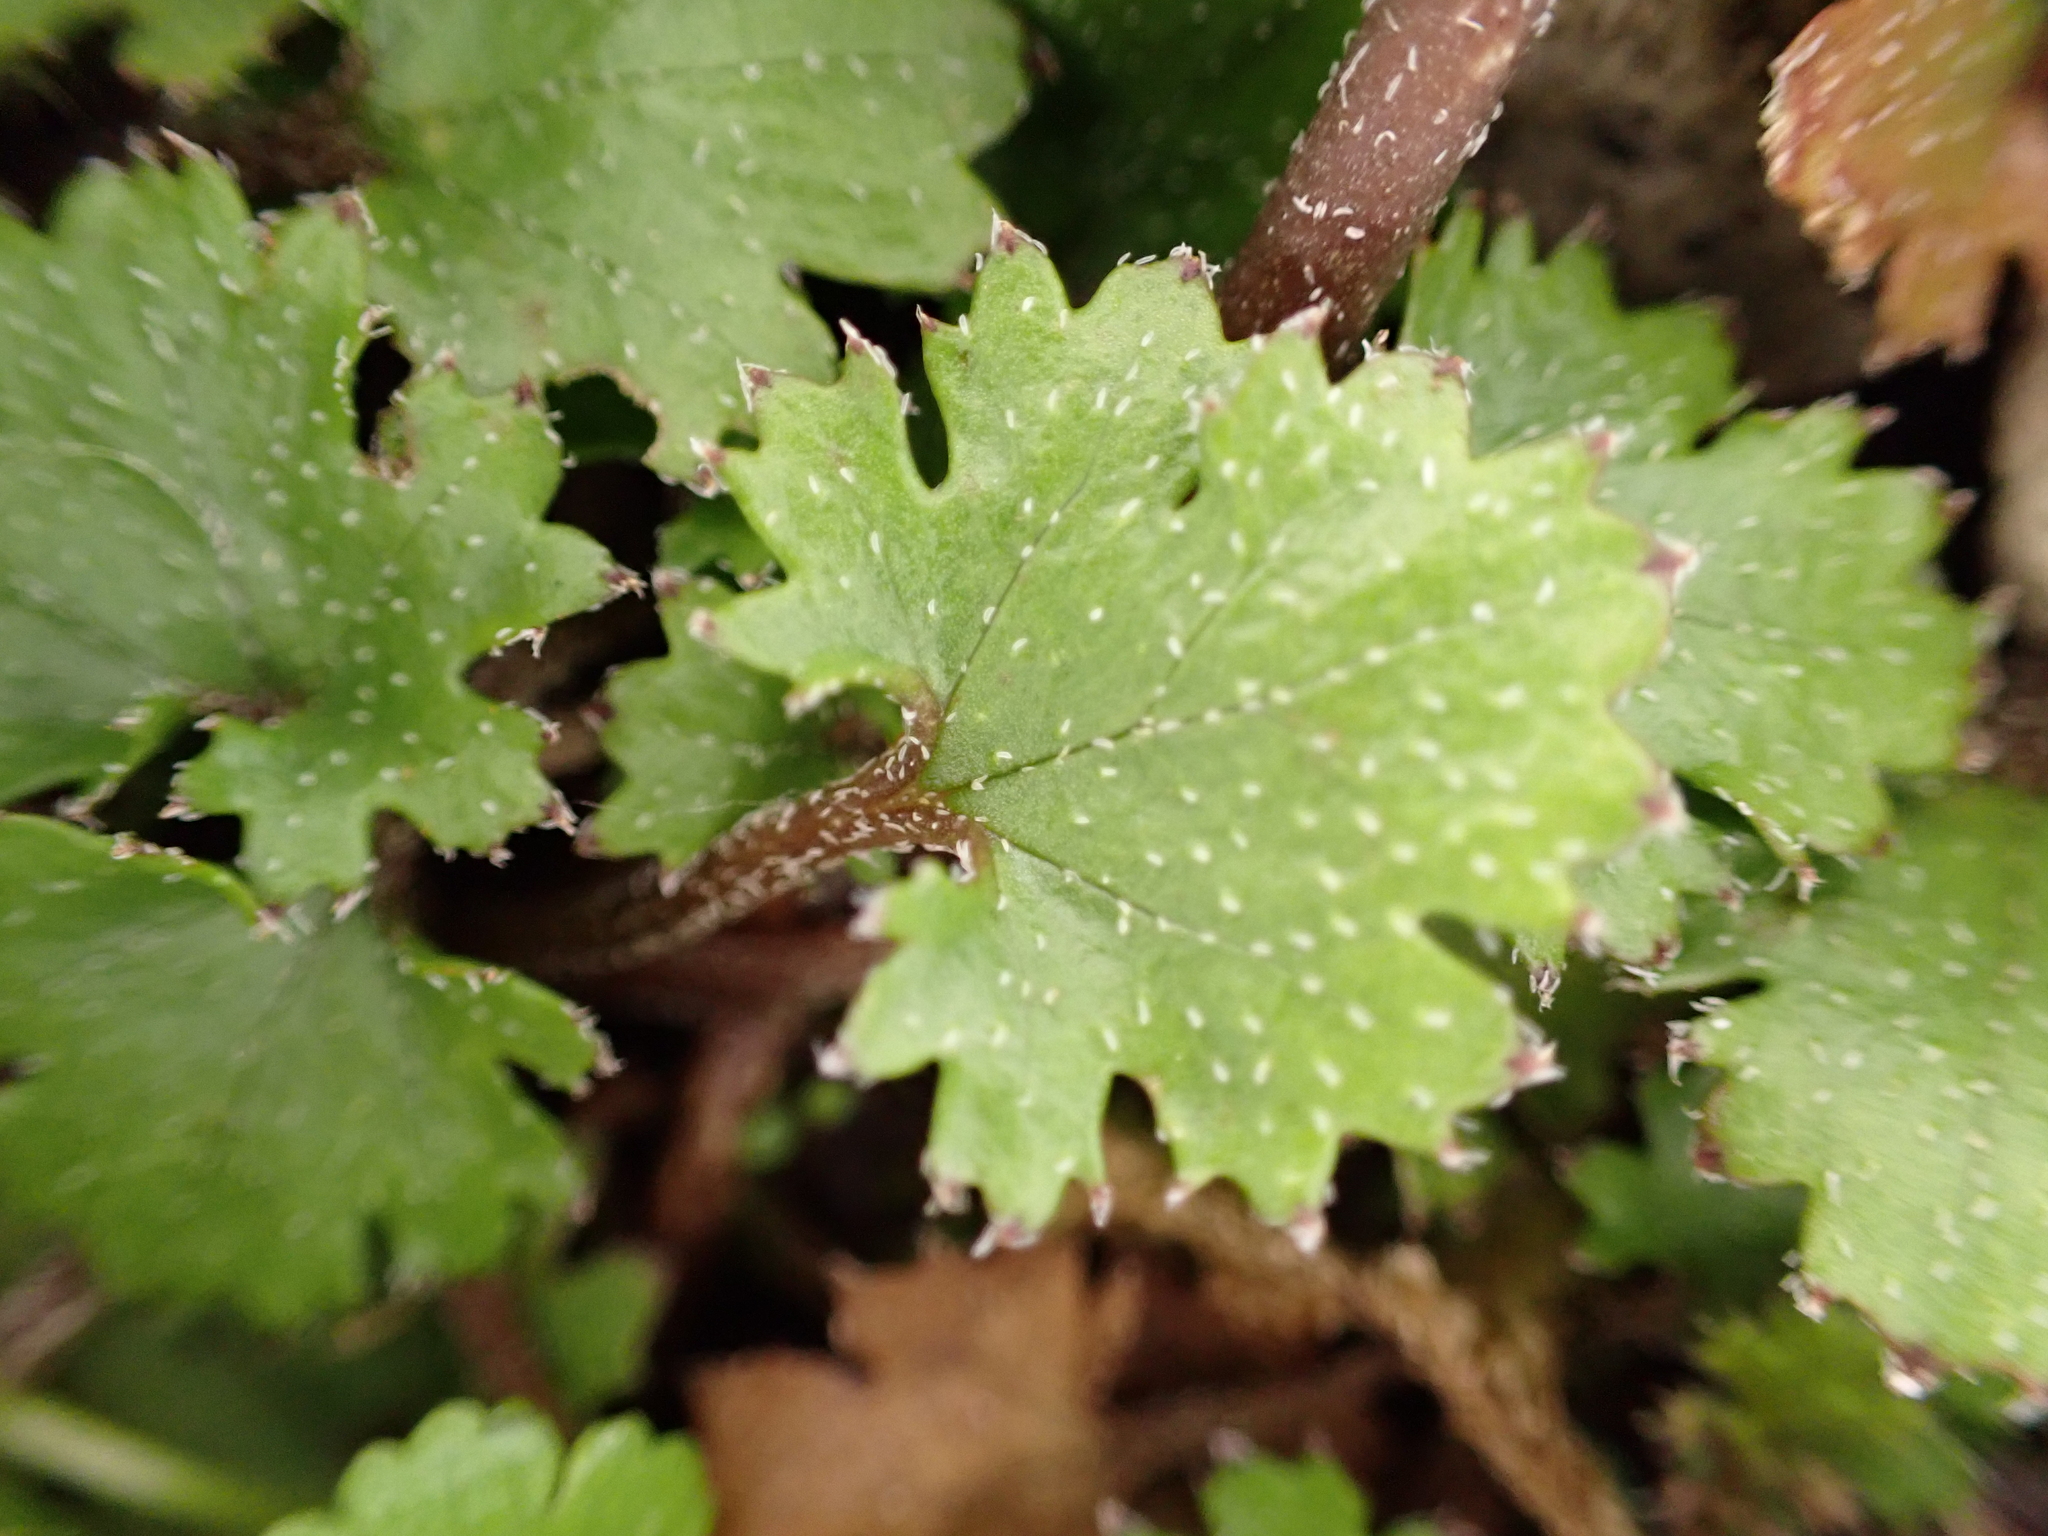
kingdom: Plantae
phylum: Tracheophyta
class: Magnoliopsida
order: Gunnerales
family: Gunneraceae
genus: Gunnera
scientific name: Gunnera monoica
